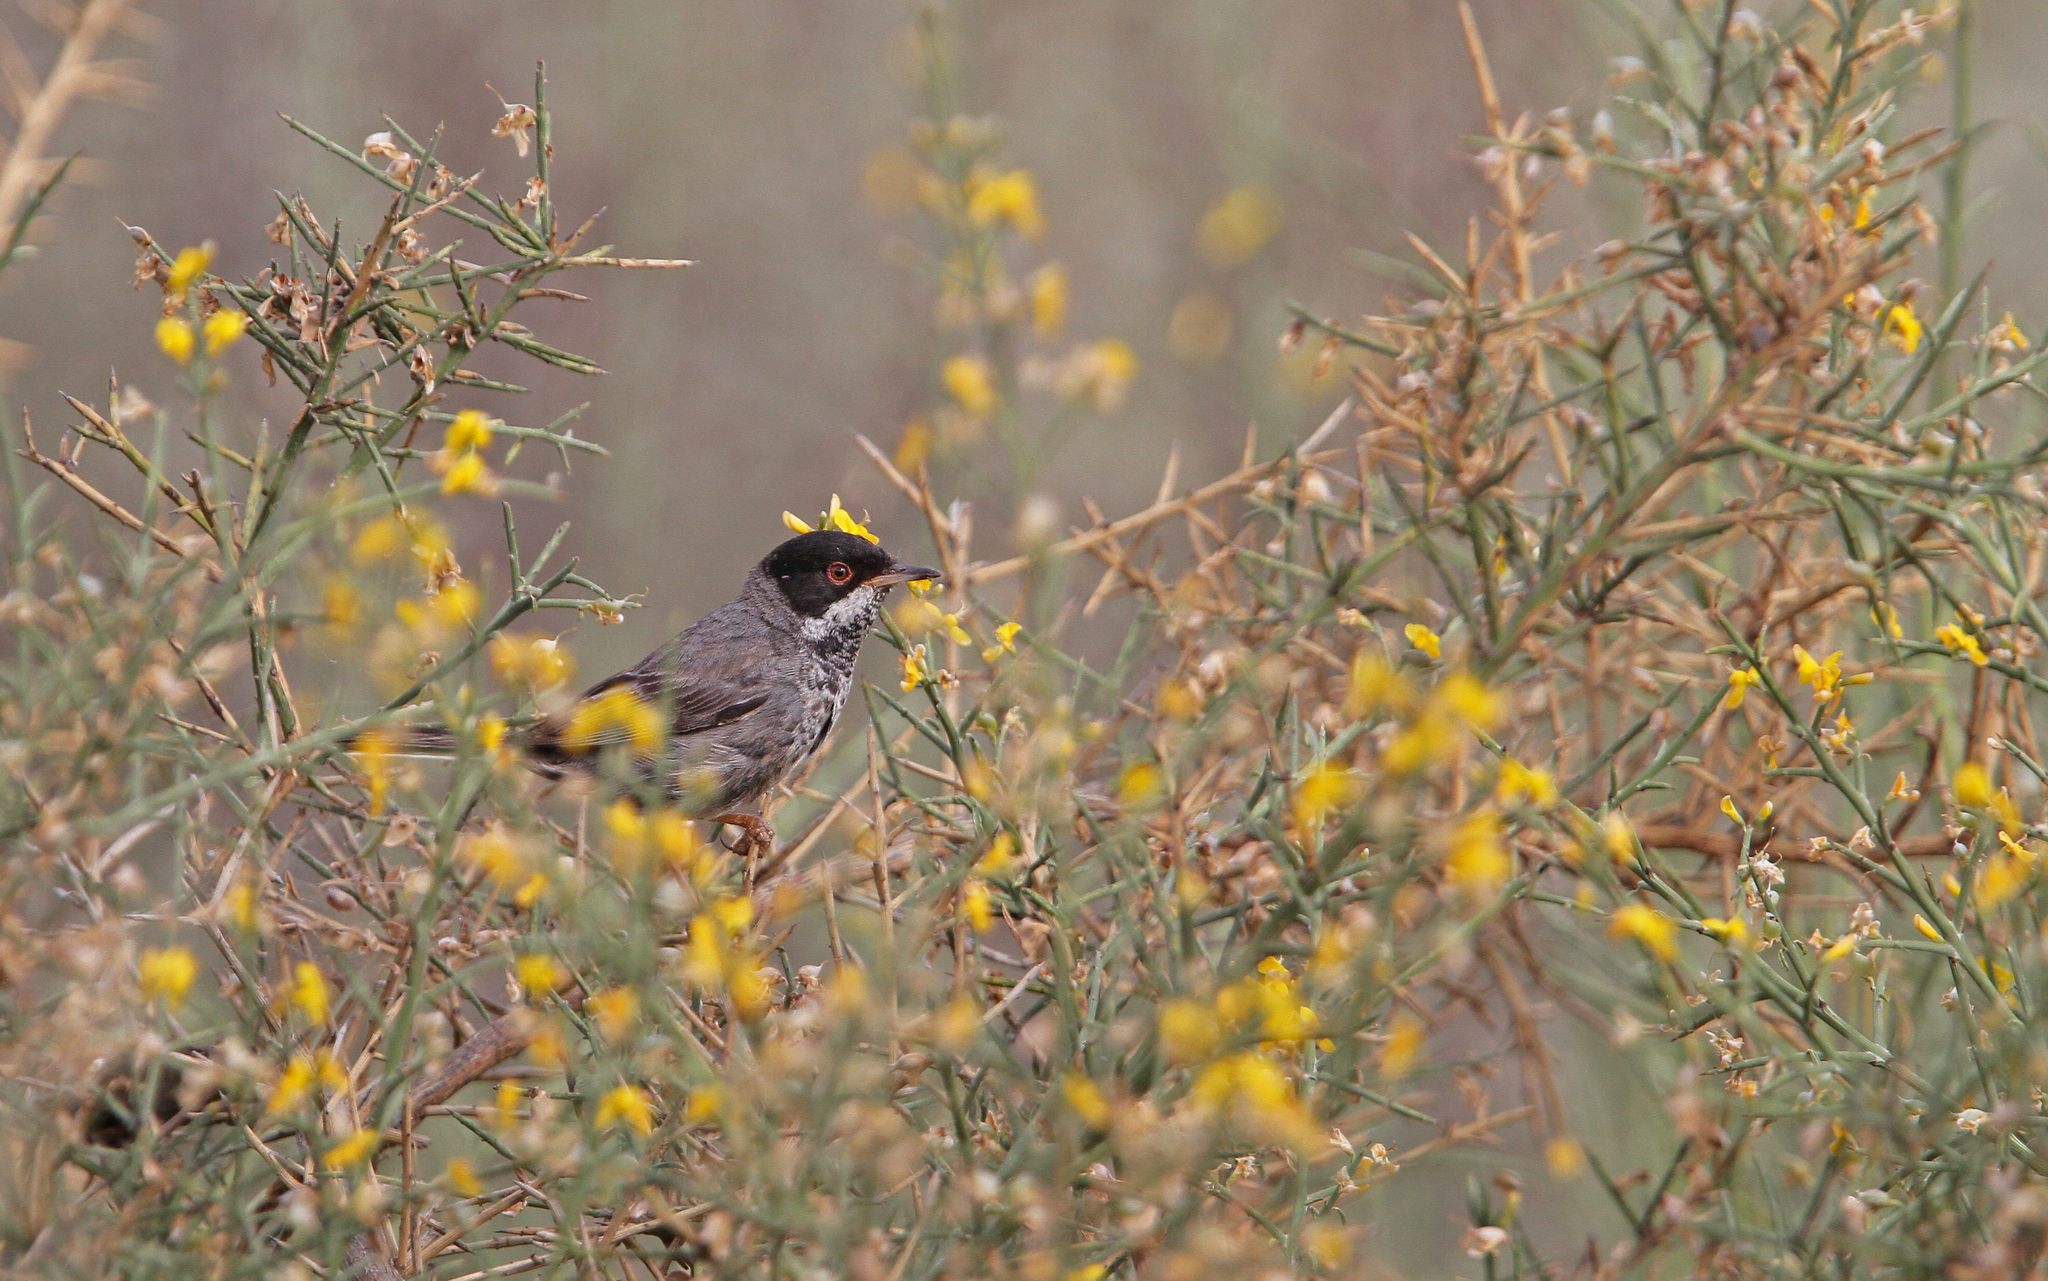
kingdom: Animalia
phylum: Chordata
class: Aves
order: Passeriformes
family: Sylviidae
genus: Sylvia
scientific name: Sylvia melanothorax
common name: Cyprus warbler
